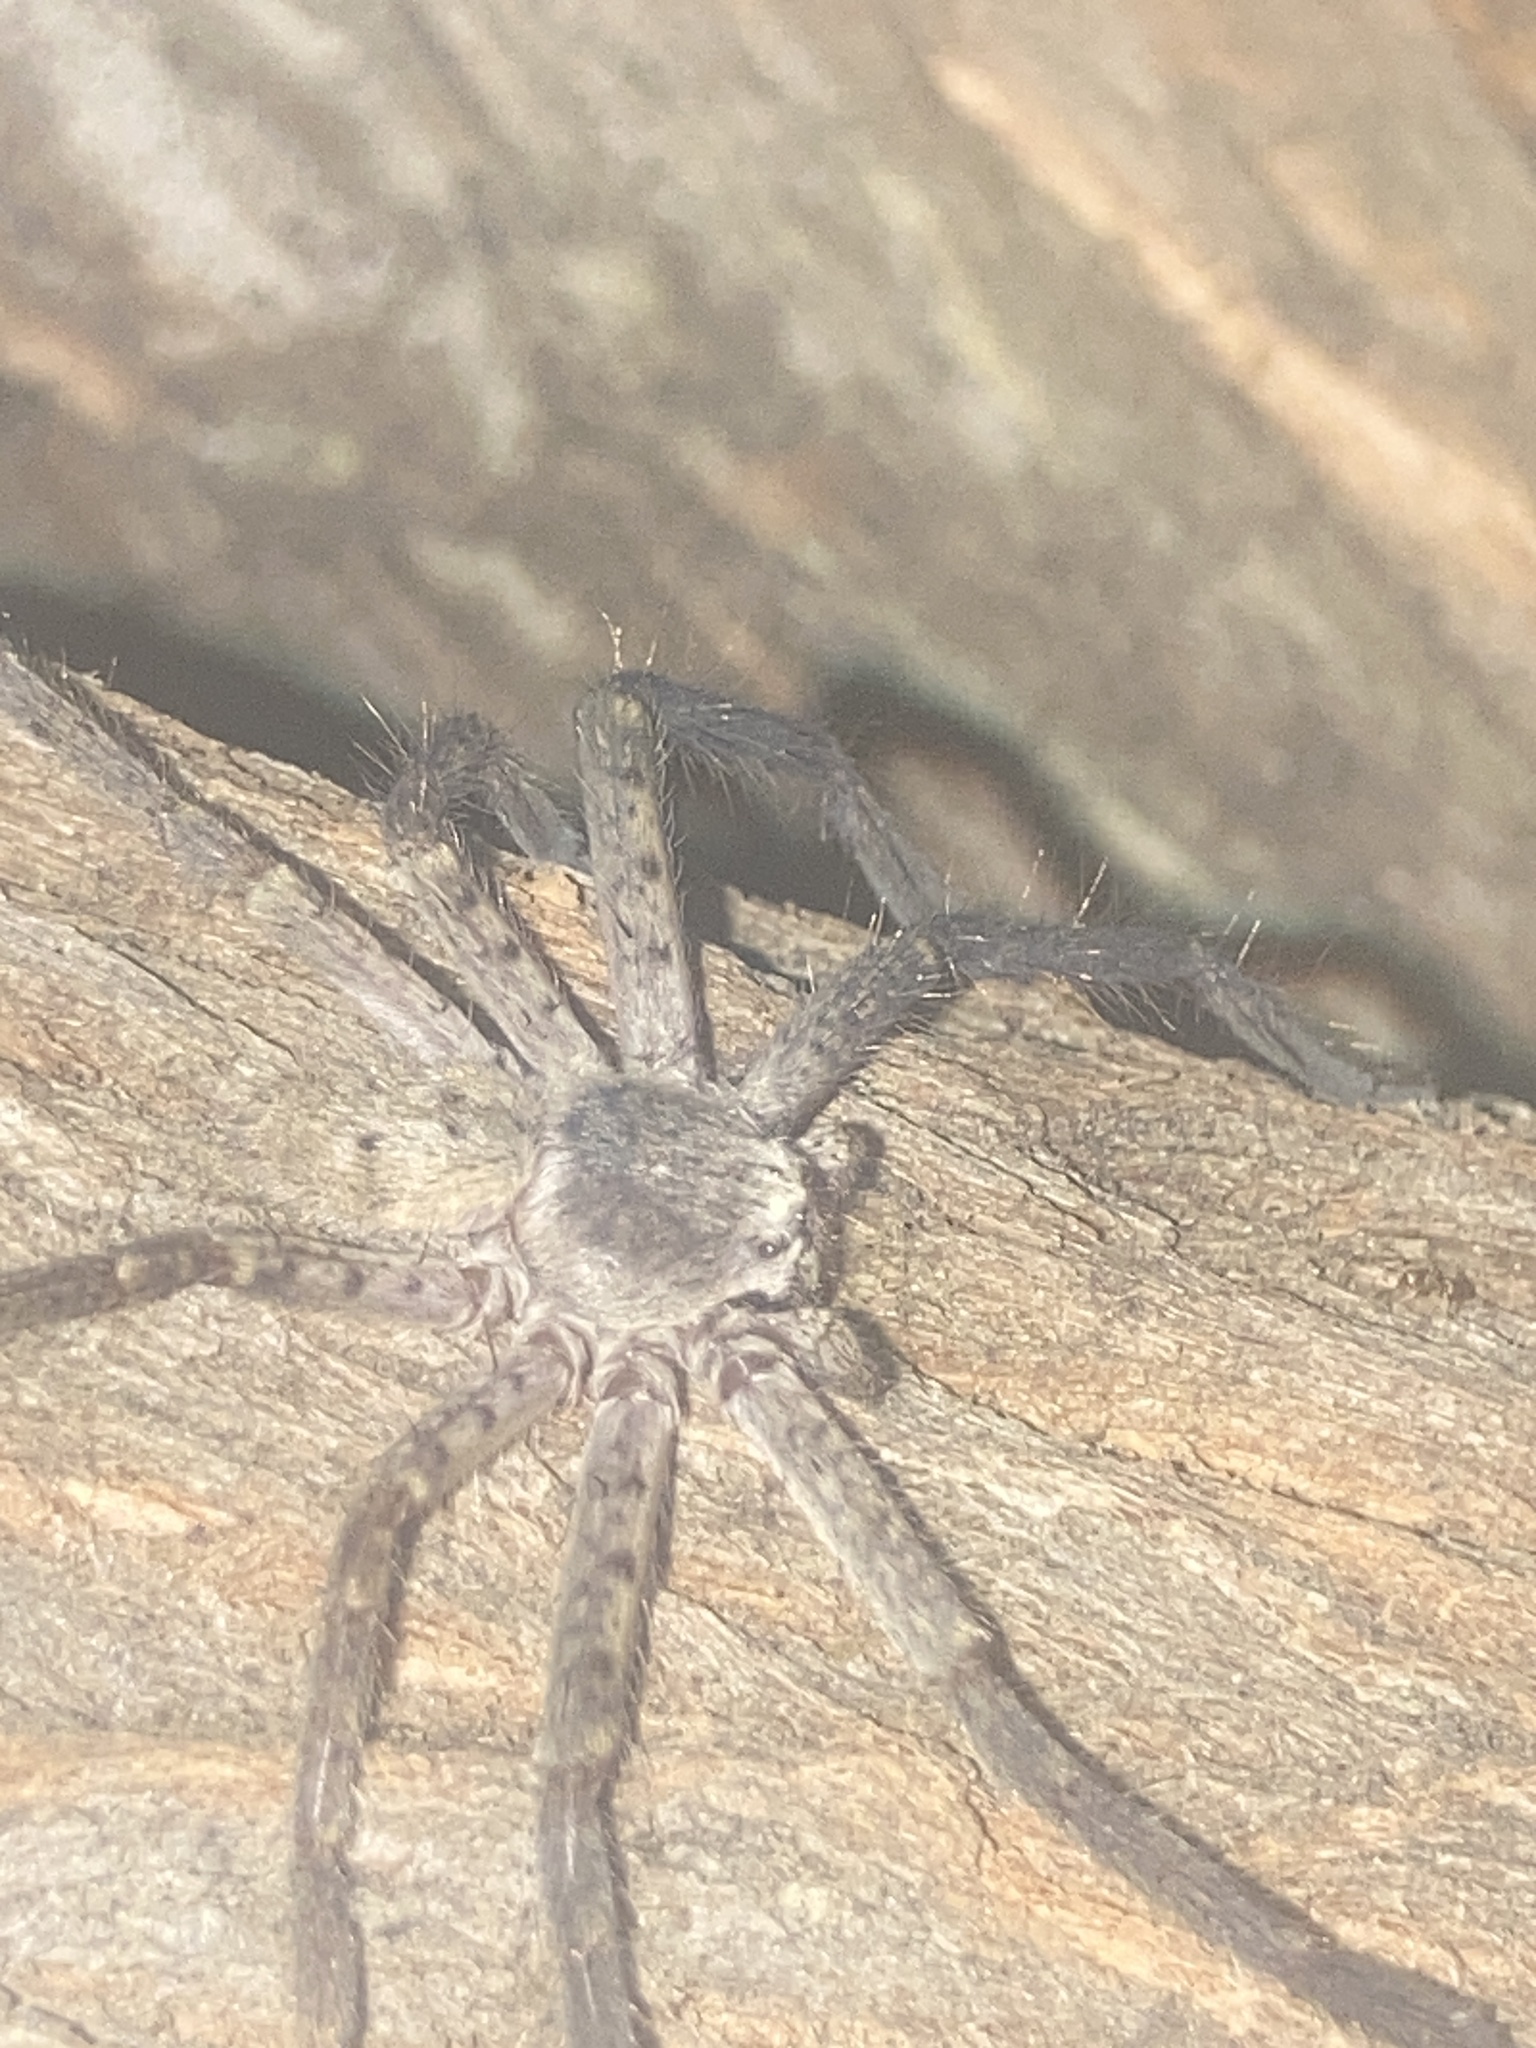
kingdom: Animalia
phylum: Arthropoda
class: Arachnida
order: Araneae
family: Sparassidae
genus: Isopeda
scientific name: Isopeda villosa
